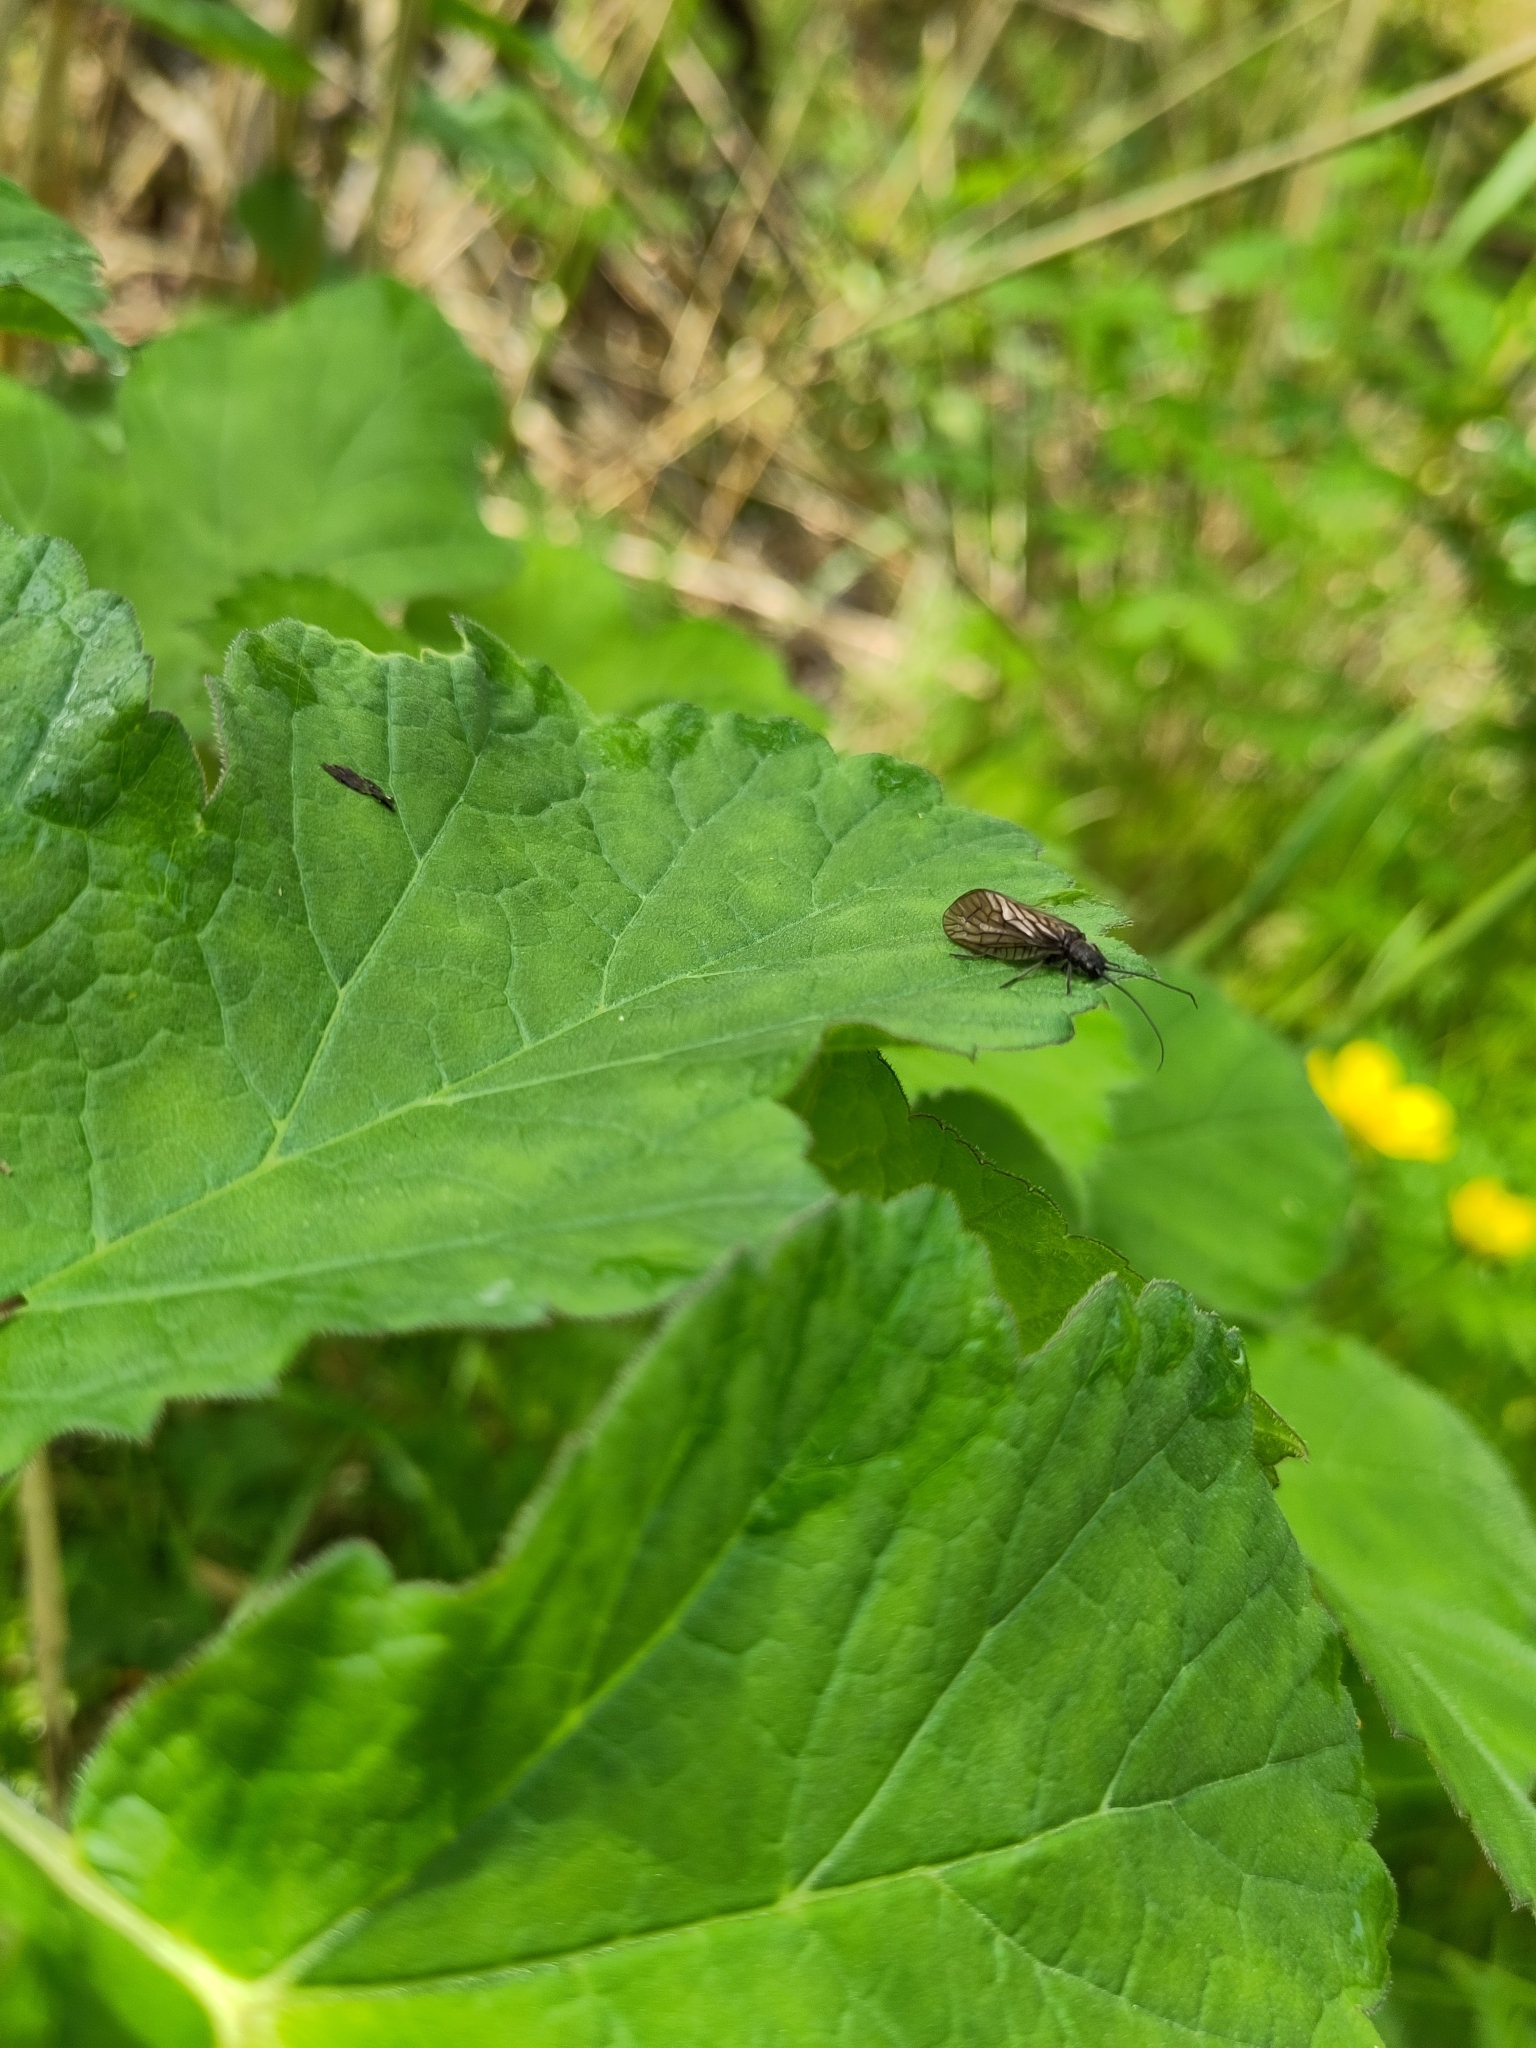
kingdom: Animalia
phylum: Arthropoda
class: Insecta
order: Megaloptera
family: Sialidae
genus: Sialis
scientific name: Sialis
